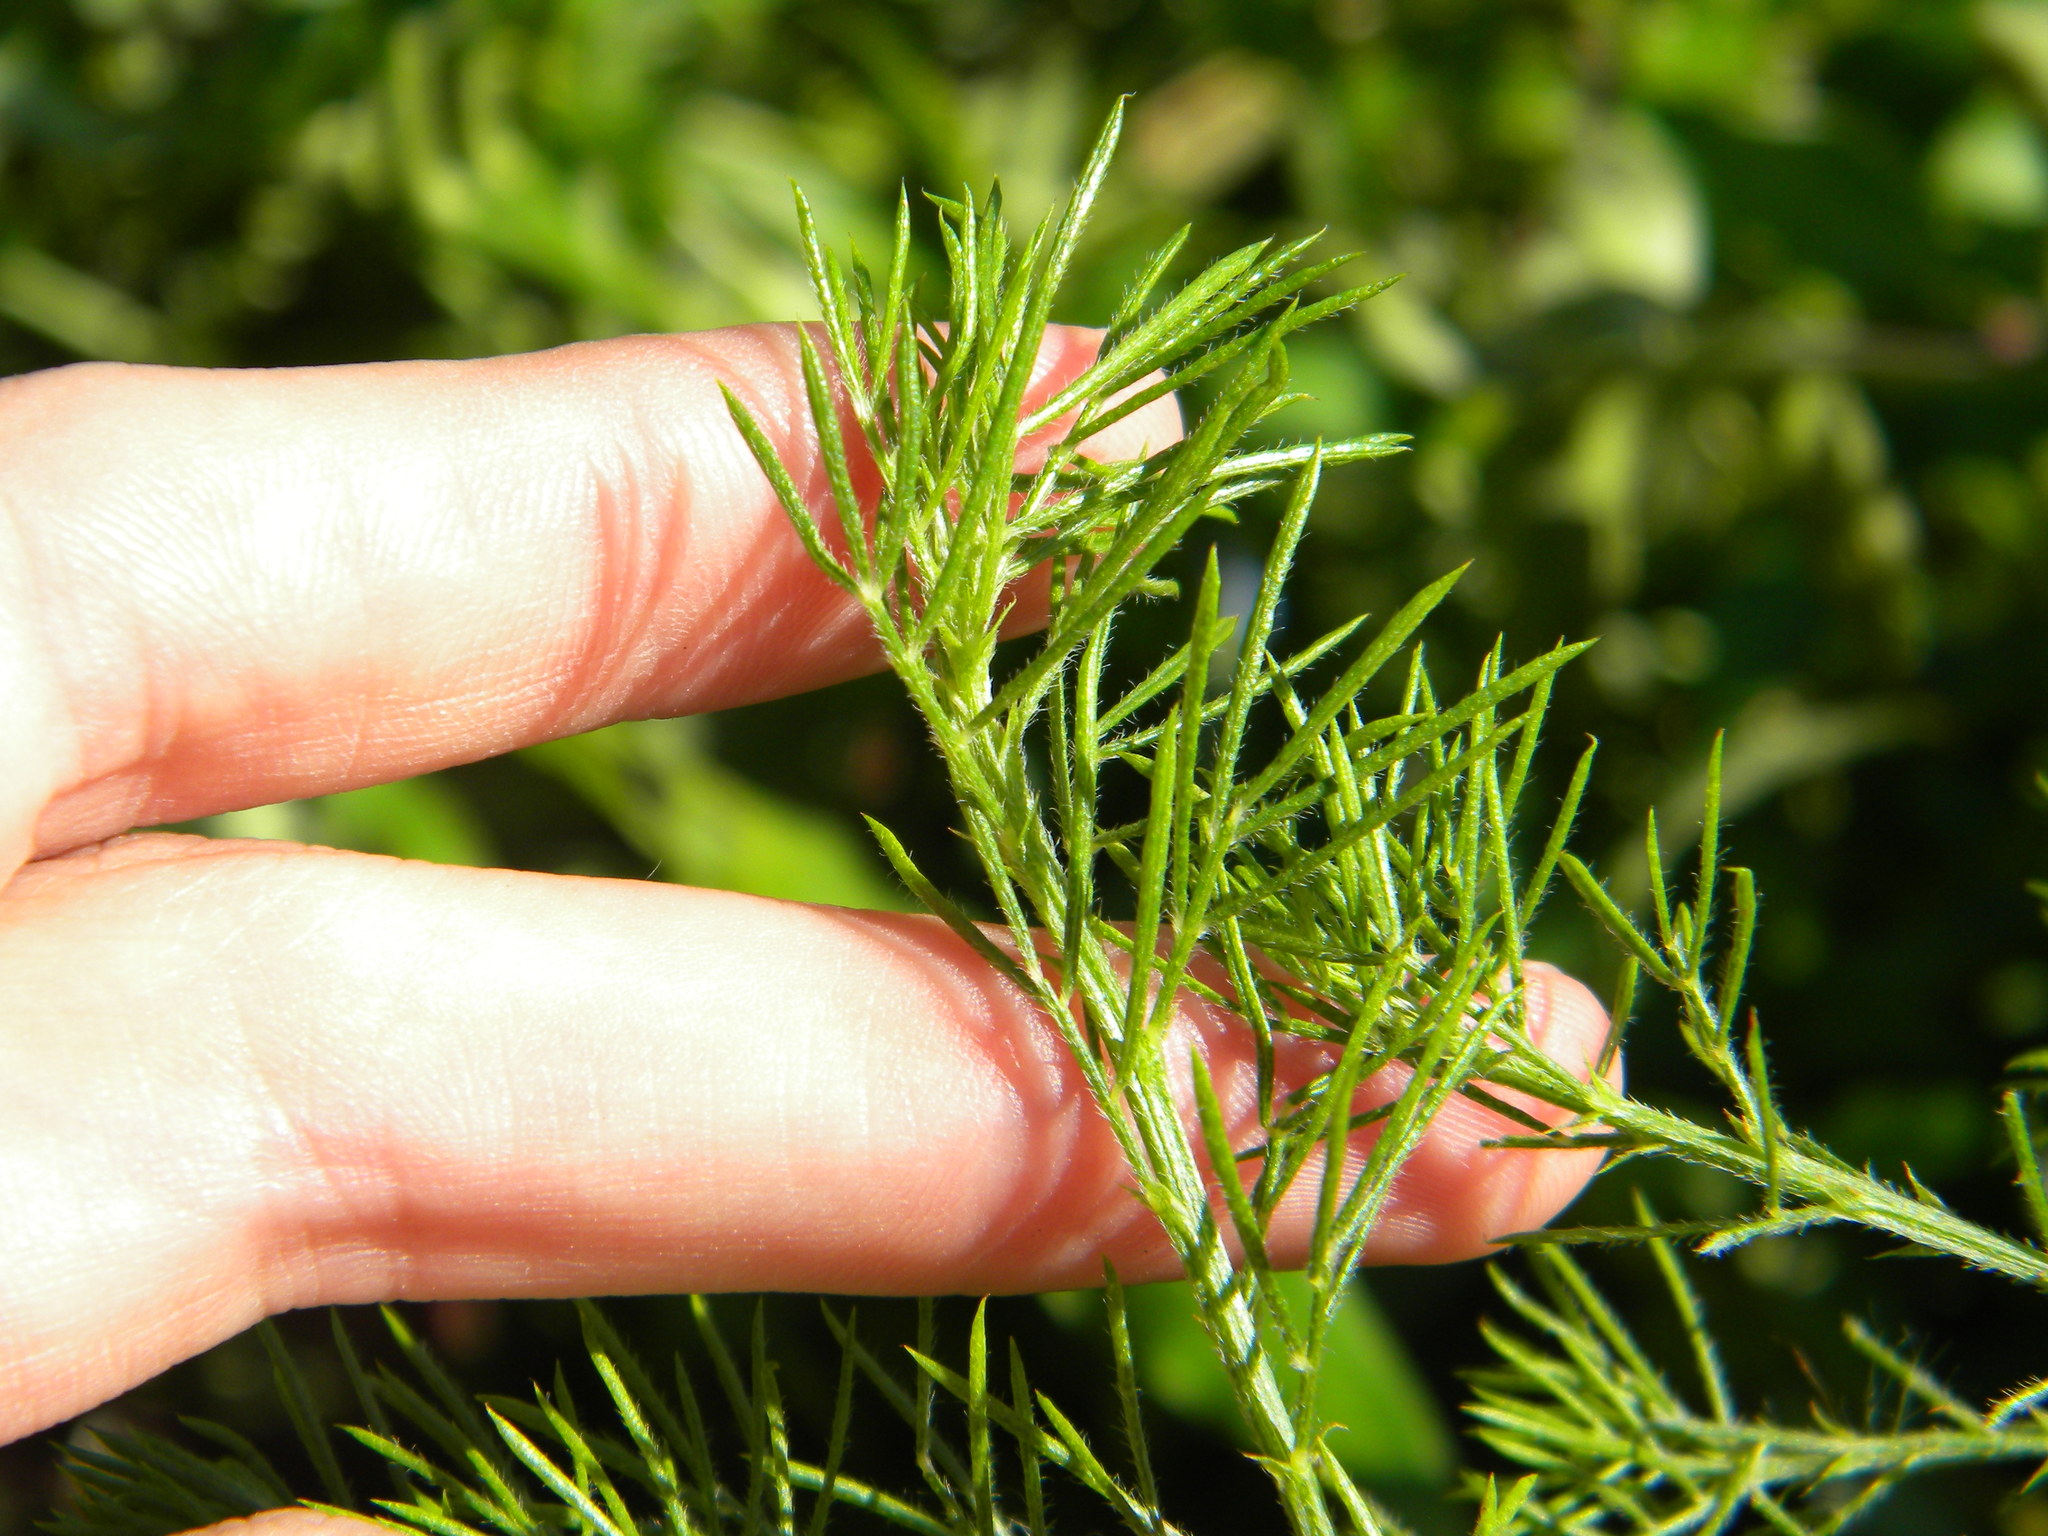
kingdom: Plantae
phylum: Tracheophyta
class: Magnoliopsida
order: Fabales
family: Fabaceae
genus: Psoralea
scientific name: Psoralea pinnata
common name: African scurfpea
